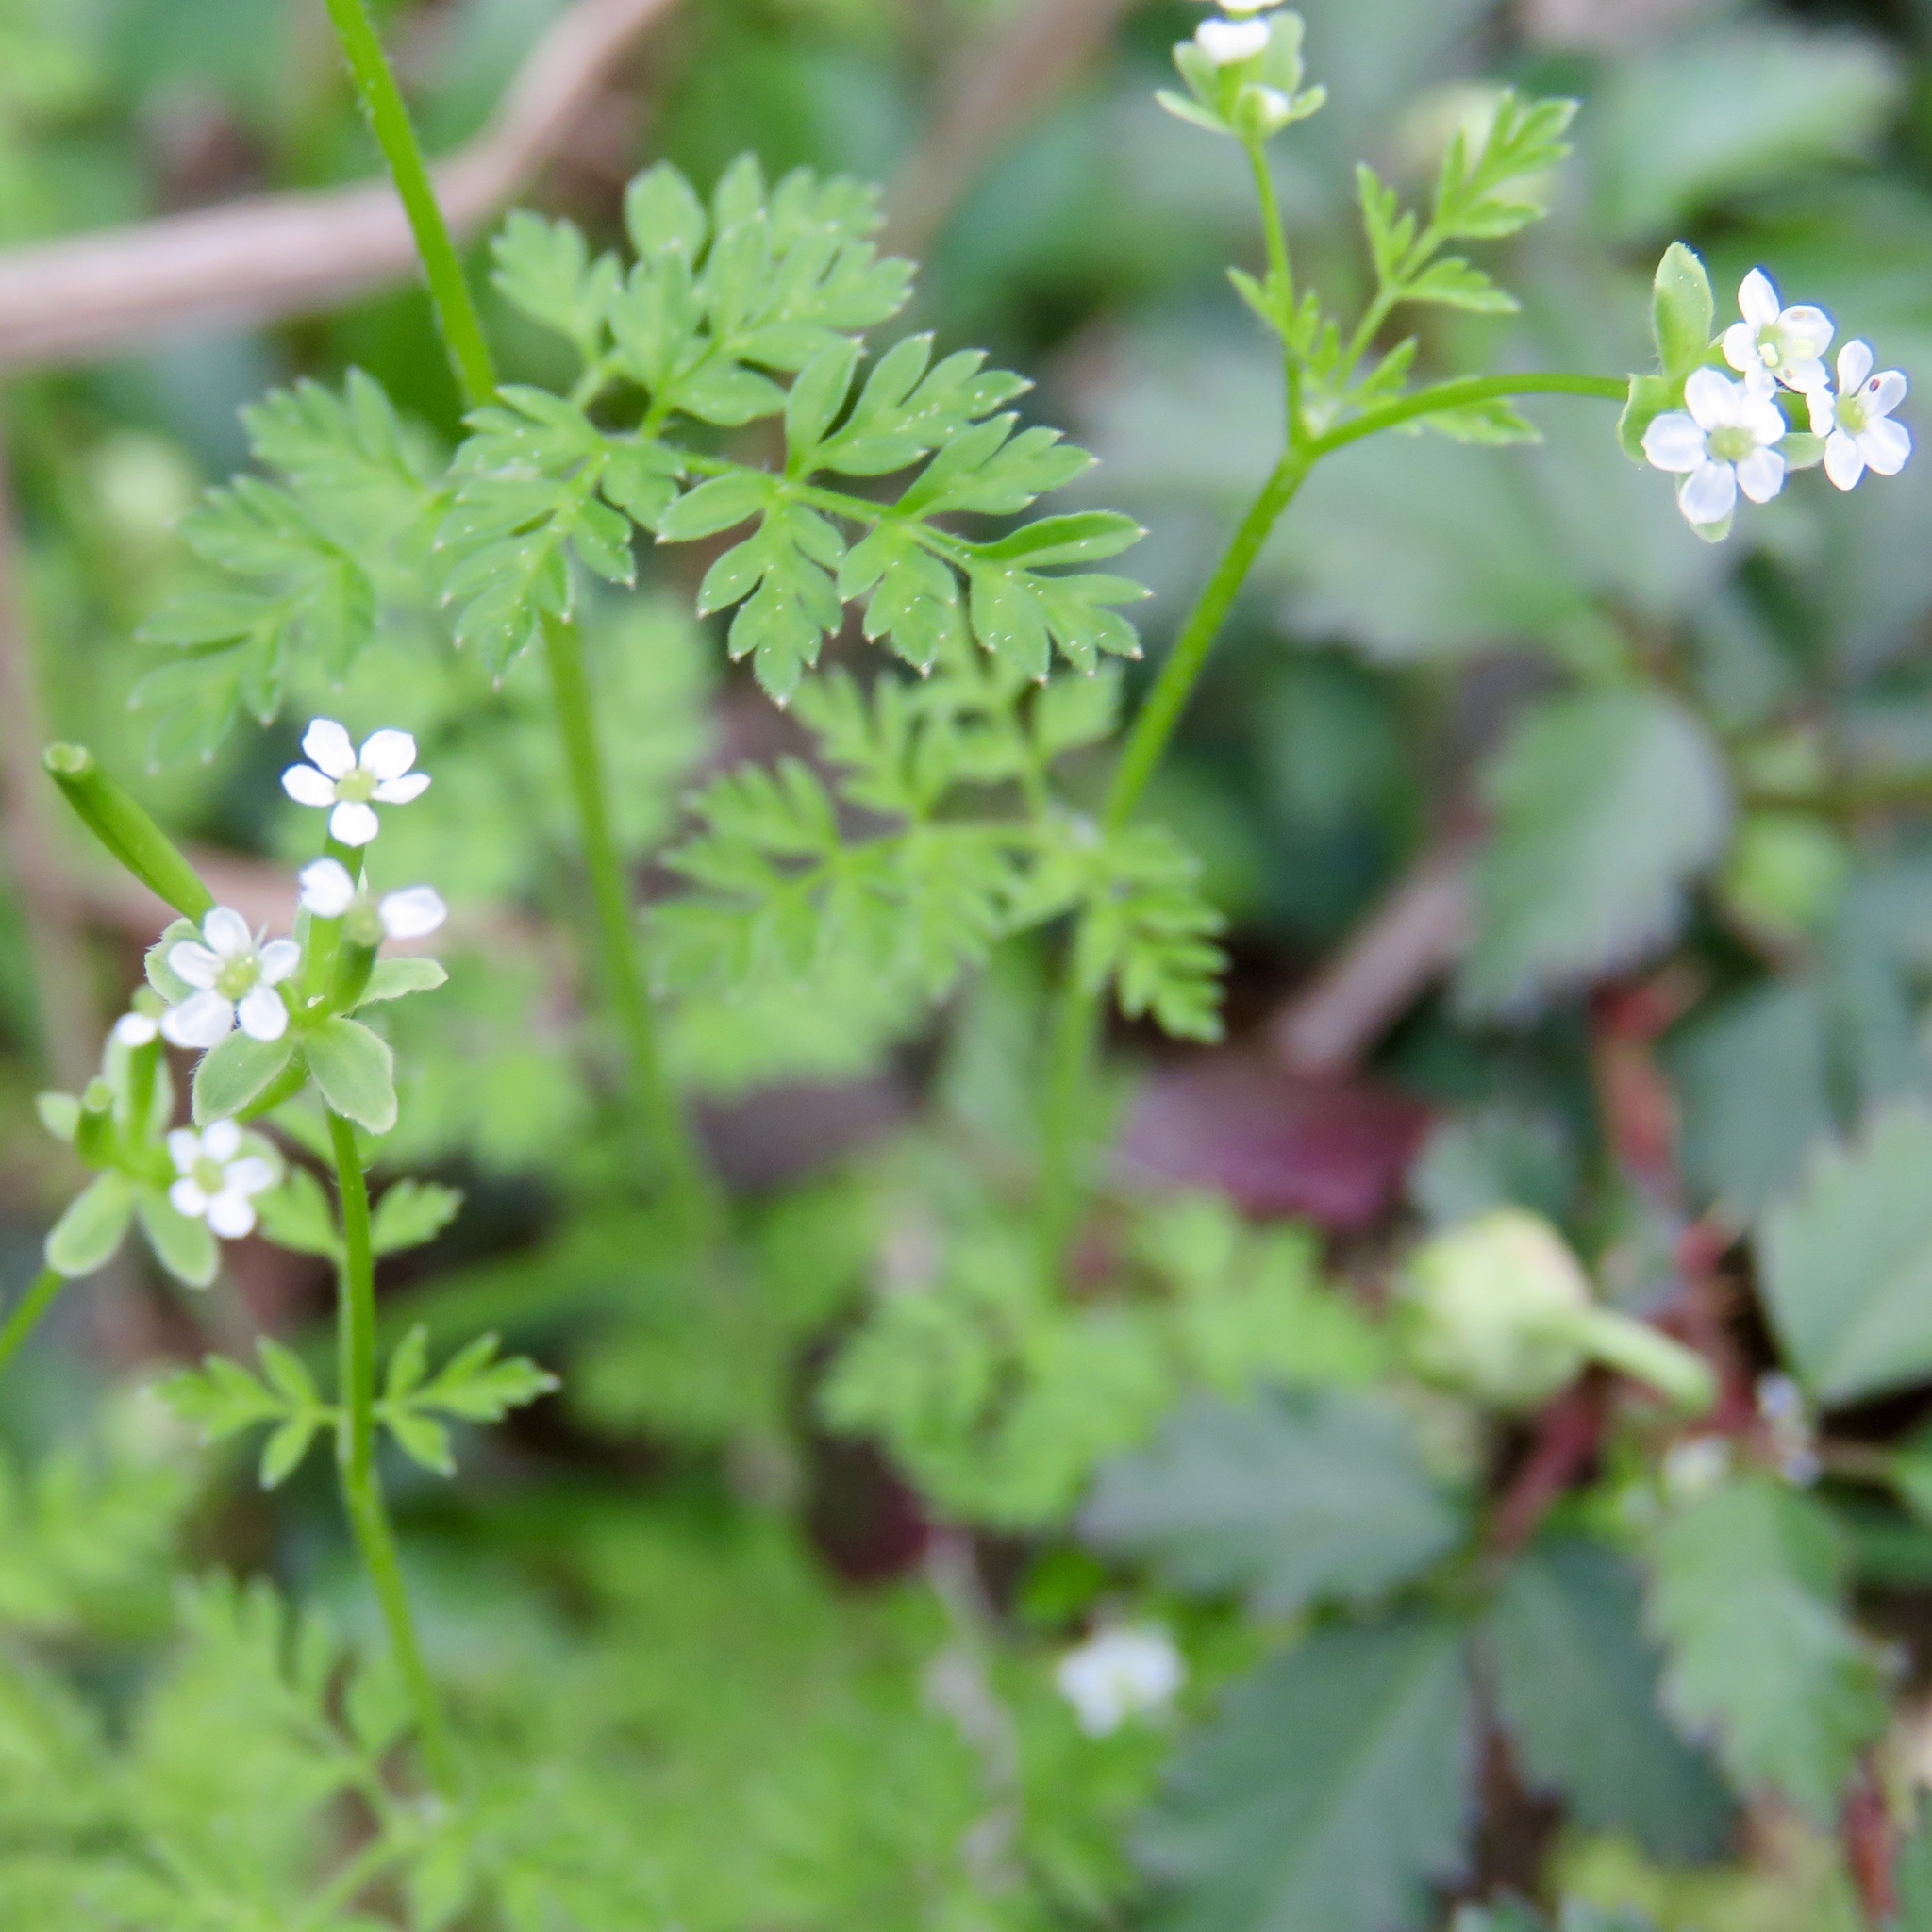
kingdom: Plantae
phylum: Tracheophyta
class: Magnoliopsida
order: Apiales
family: Apiaceae
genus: Chaerophyllum
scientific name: Chaerophyllum tainturieri
